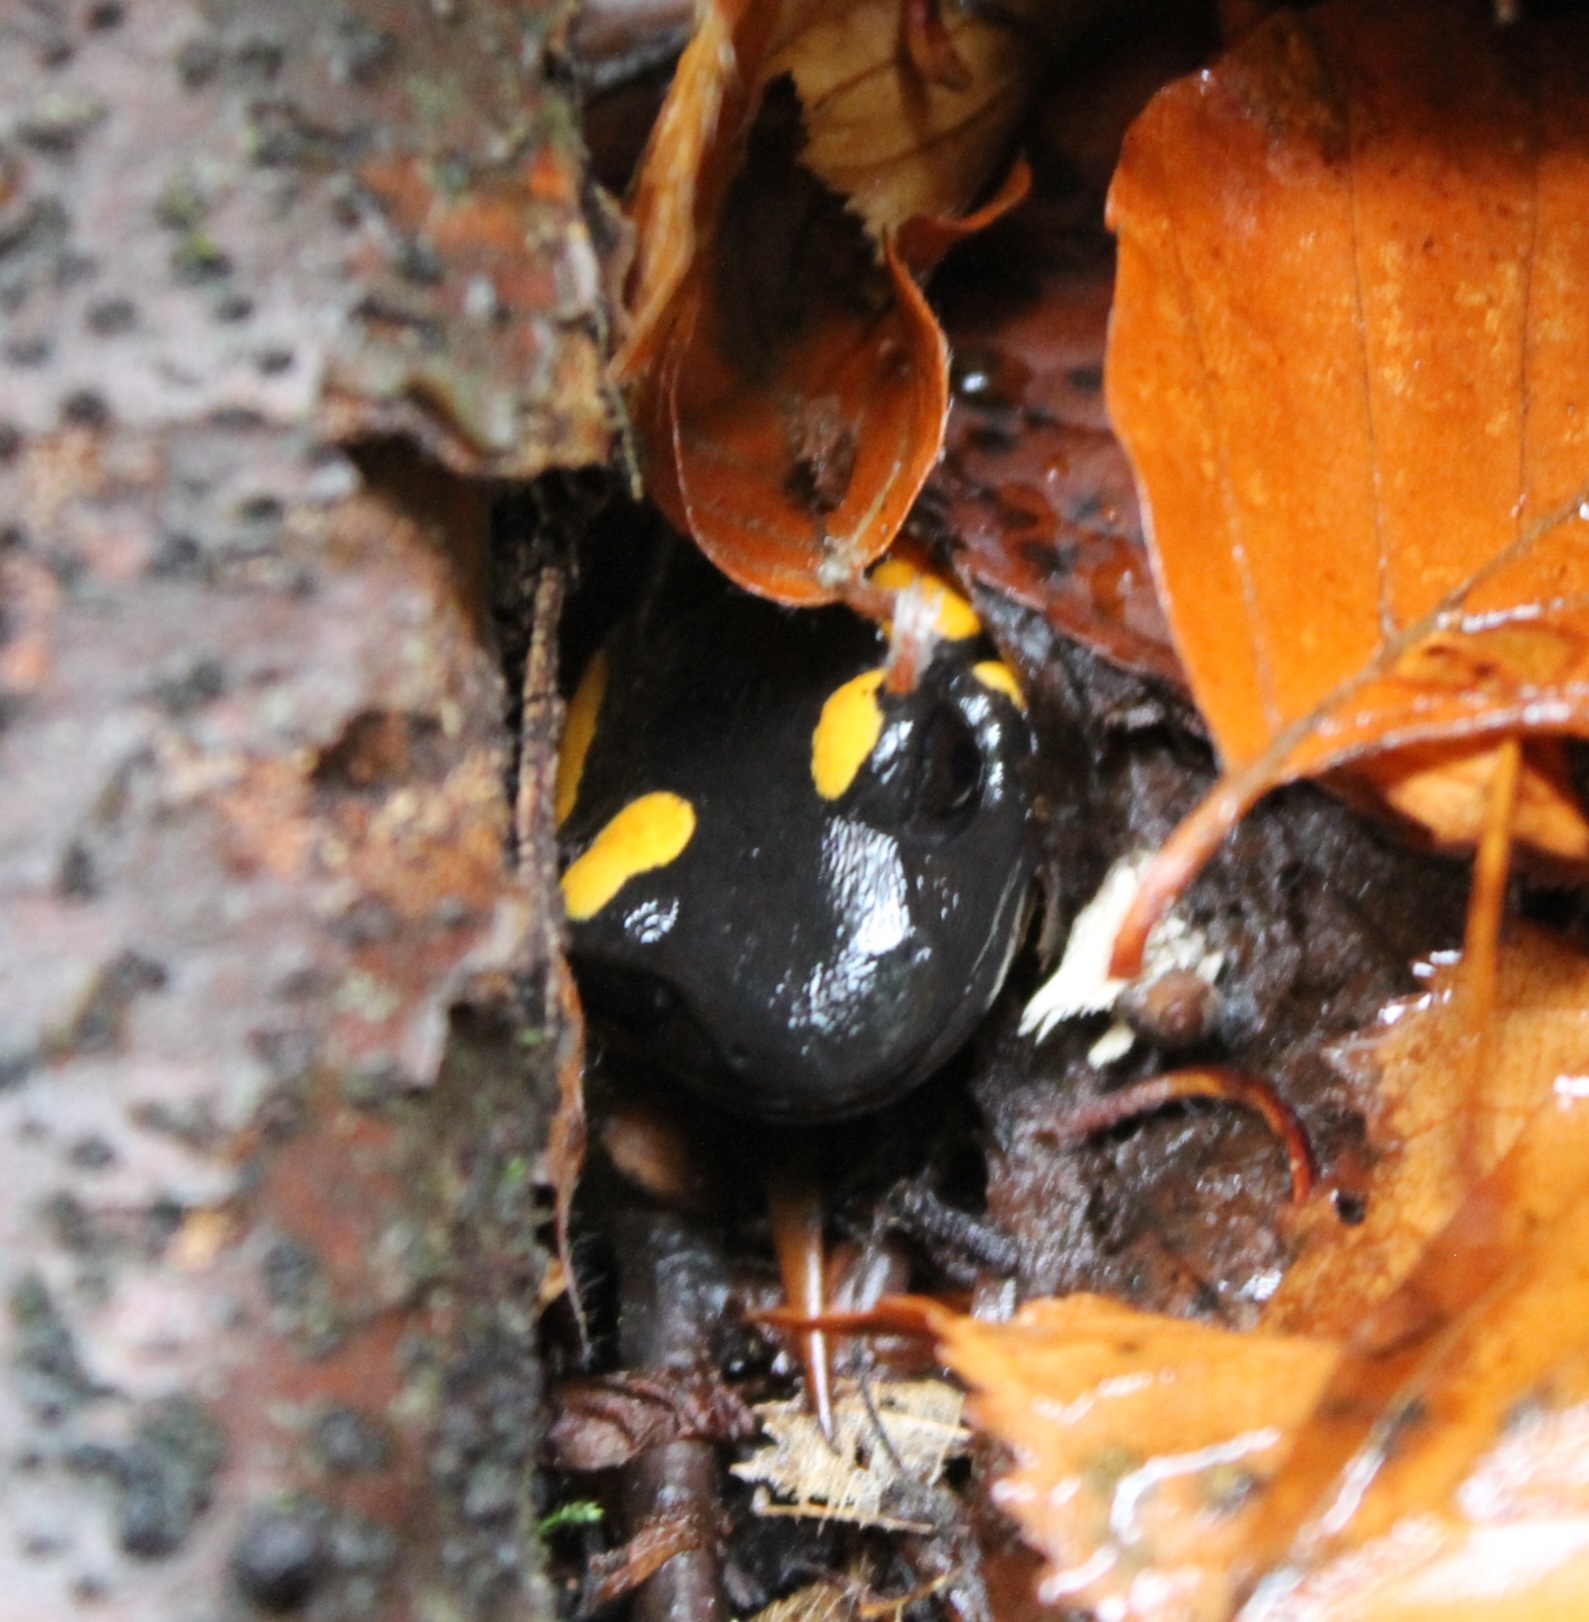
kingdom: Animalia
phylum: Chordata
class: Amphibia
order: Caudata
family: Salamandridae
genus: Salamandra
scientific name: Salamandra salamandra
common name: Fire salamander
